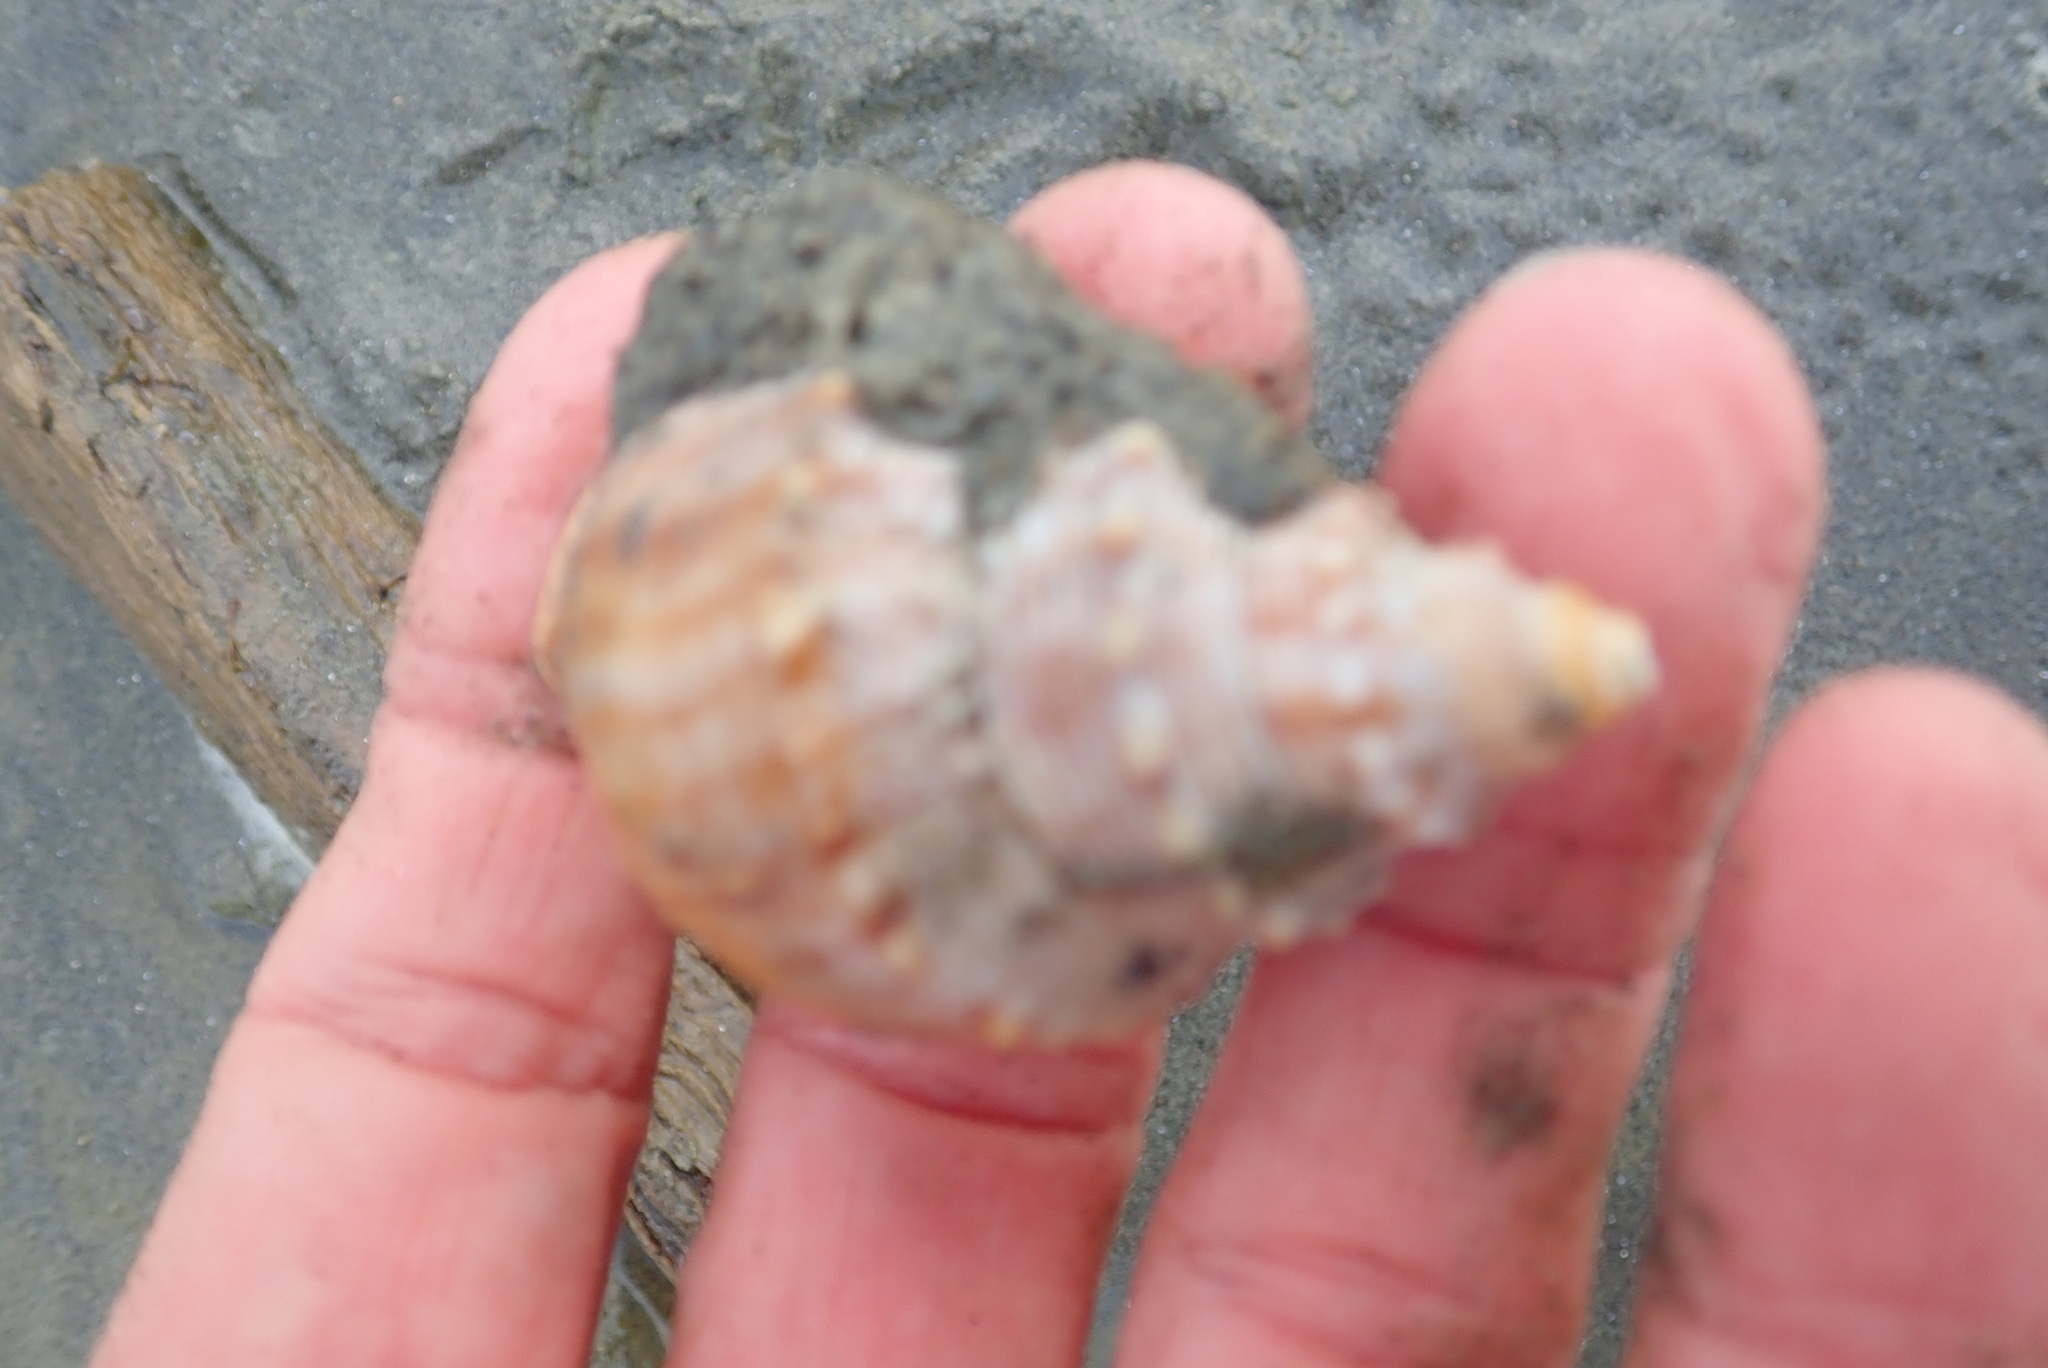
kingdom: Animalia
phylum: Mollusca
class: Gastropoda
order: Littorinimorpha
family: Struthiolariidae
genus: Struthiolaria
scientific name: Struthiolaria papulosa
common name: Large ostrich foot
